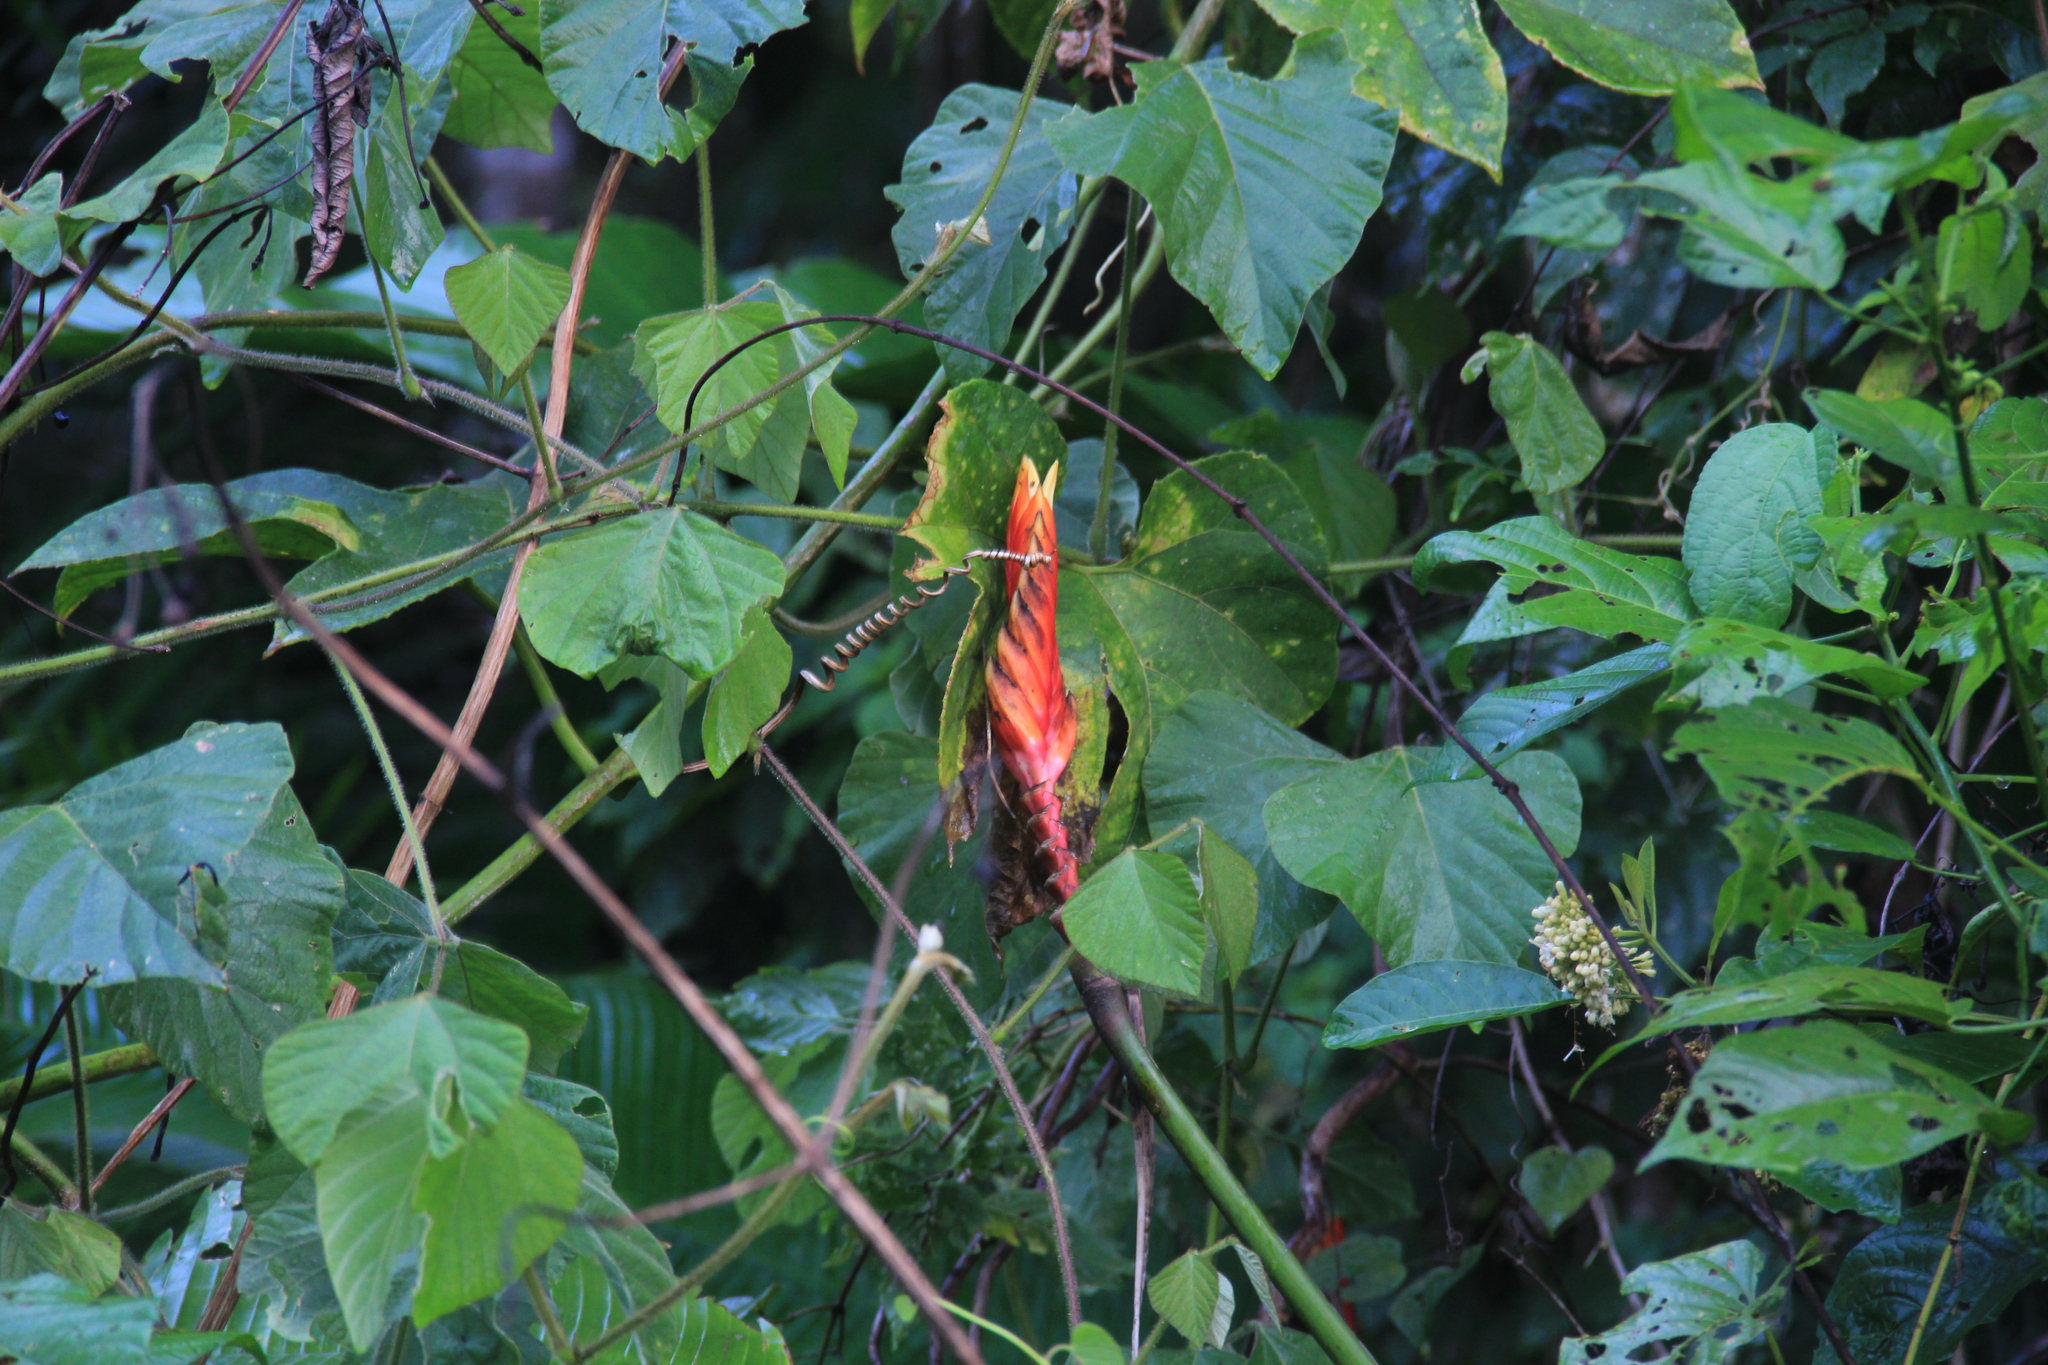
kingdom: Plantae
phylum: Tracheophyta
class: Liliopsida
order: Zingiberales
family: Heliconiaceae
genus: Heliconia
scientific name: Heliconia episcopalis
